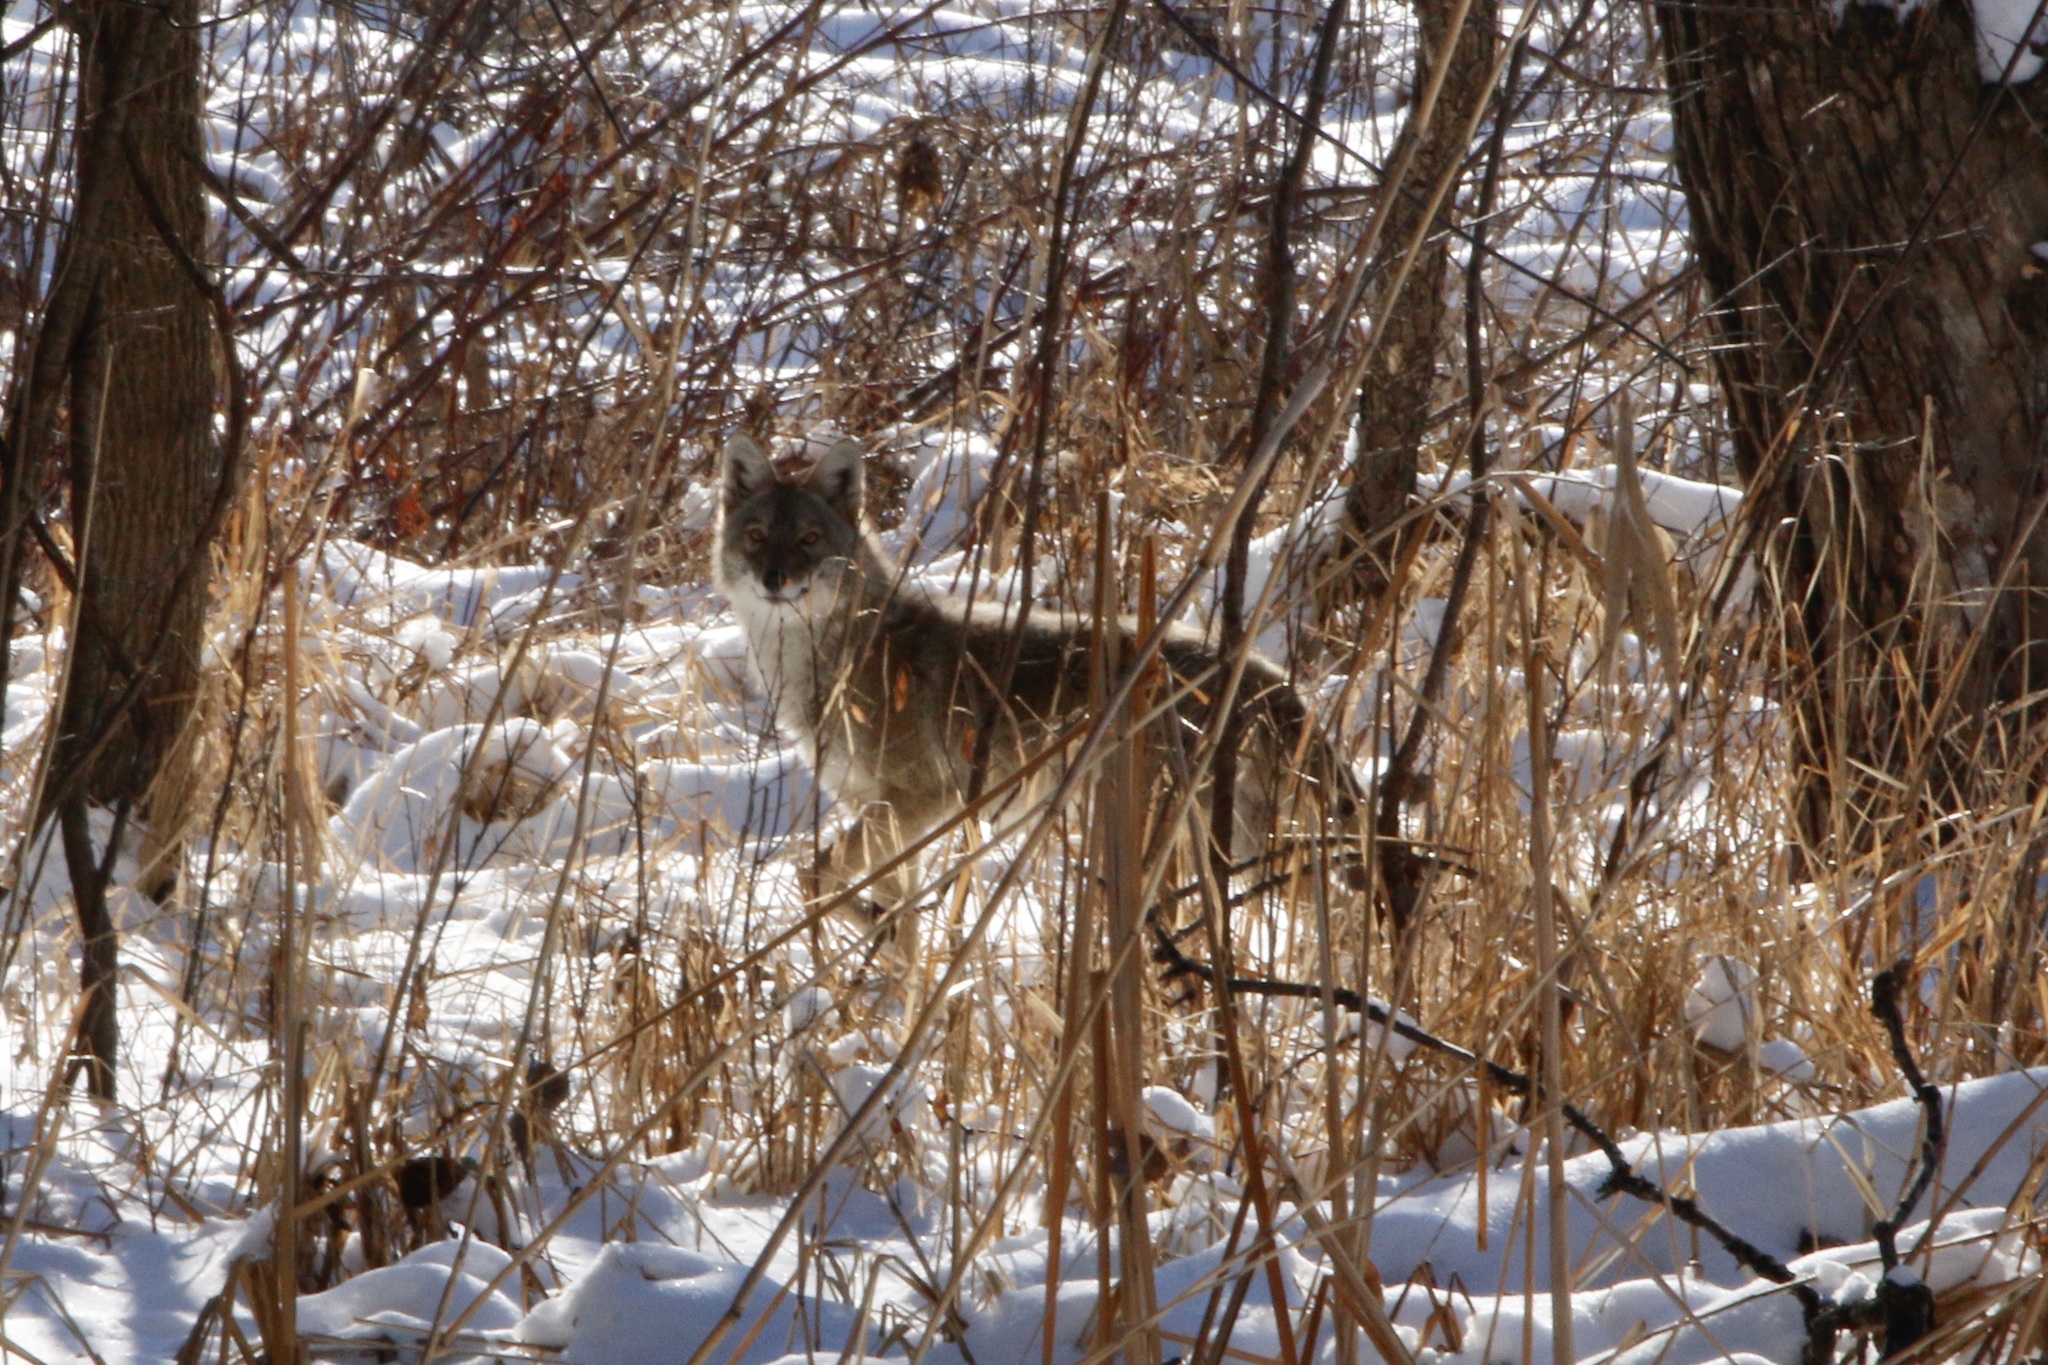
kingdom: Animalia
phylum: Chordata
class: Mammalia
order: Carnivora
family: Canidae
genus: Canis
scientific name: Canis latrans
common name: Coyote
